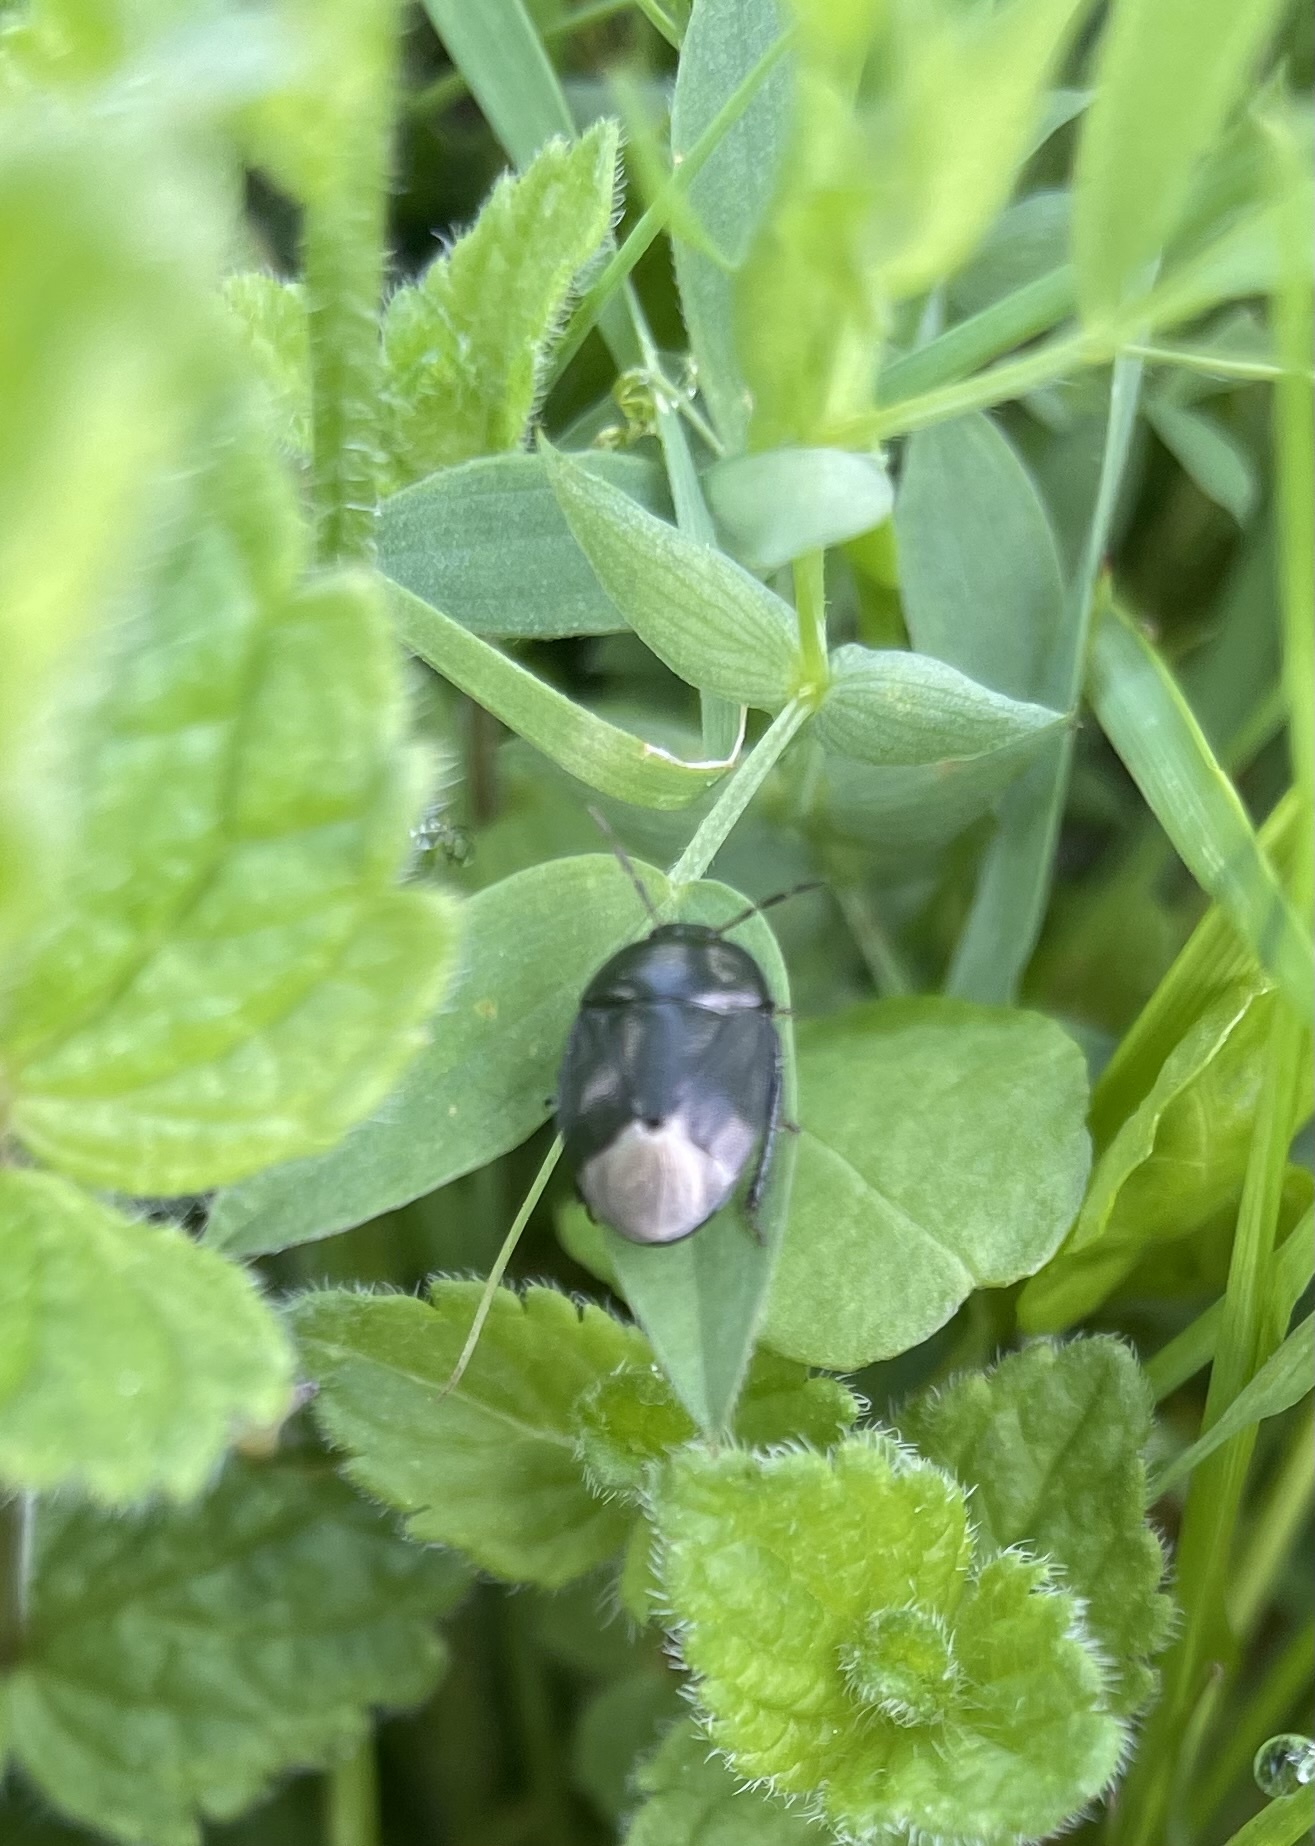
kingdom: Animalia
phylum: Arthropoda
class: Insecta
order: Hemiptera
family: Cydnidae
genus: Sehirus
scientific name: Sehirus luctuosus
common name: Forget-me-not shieldbug
